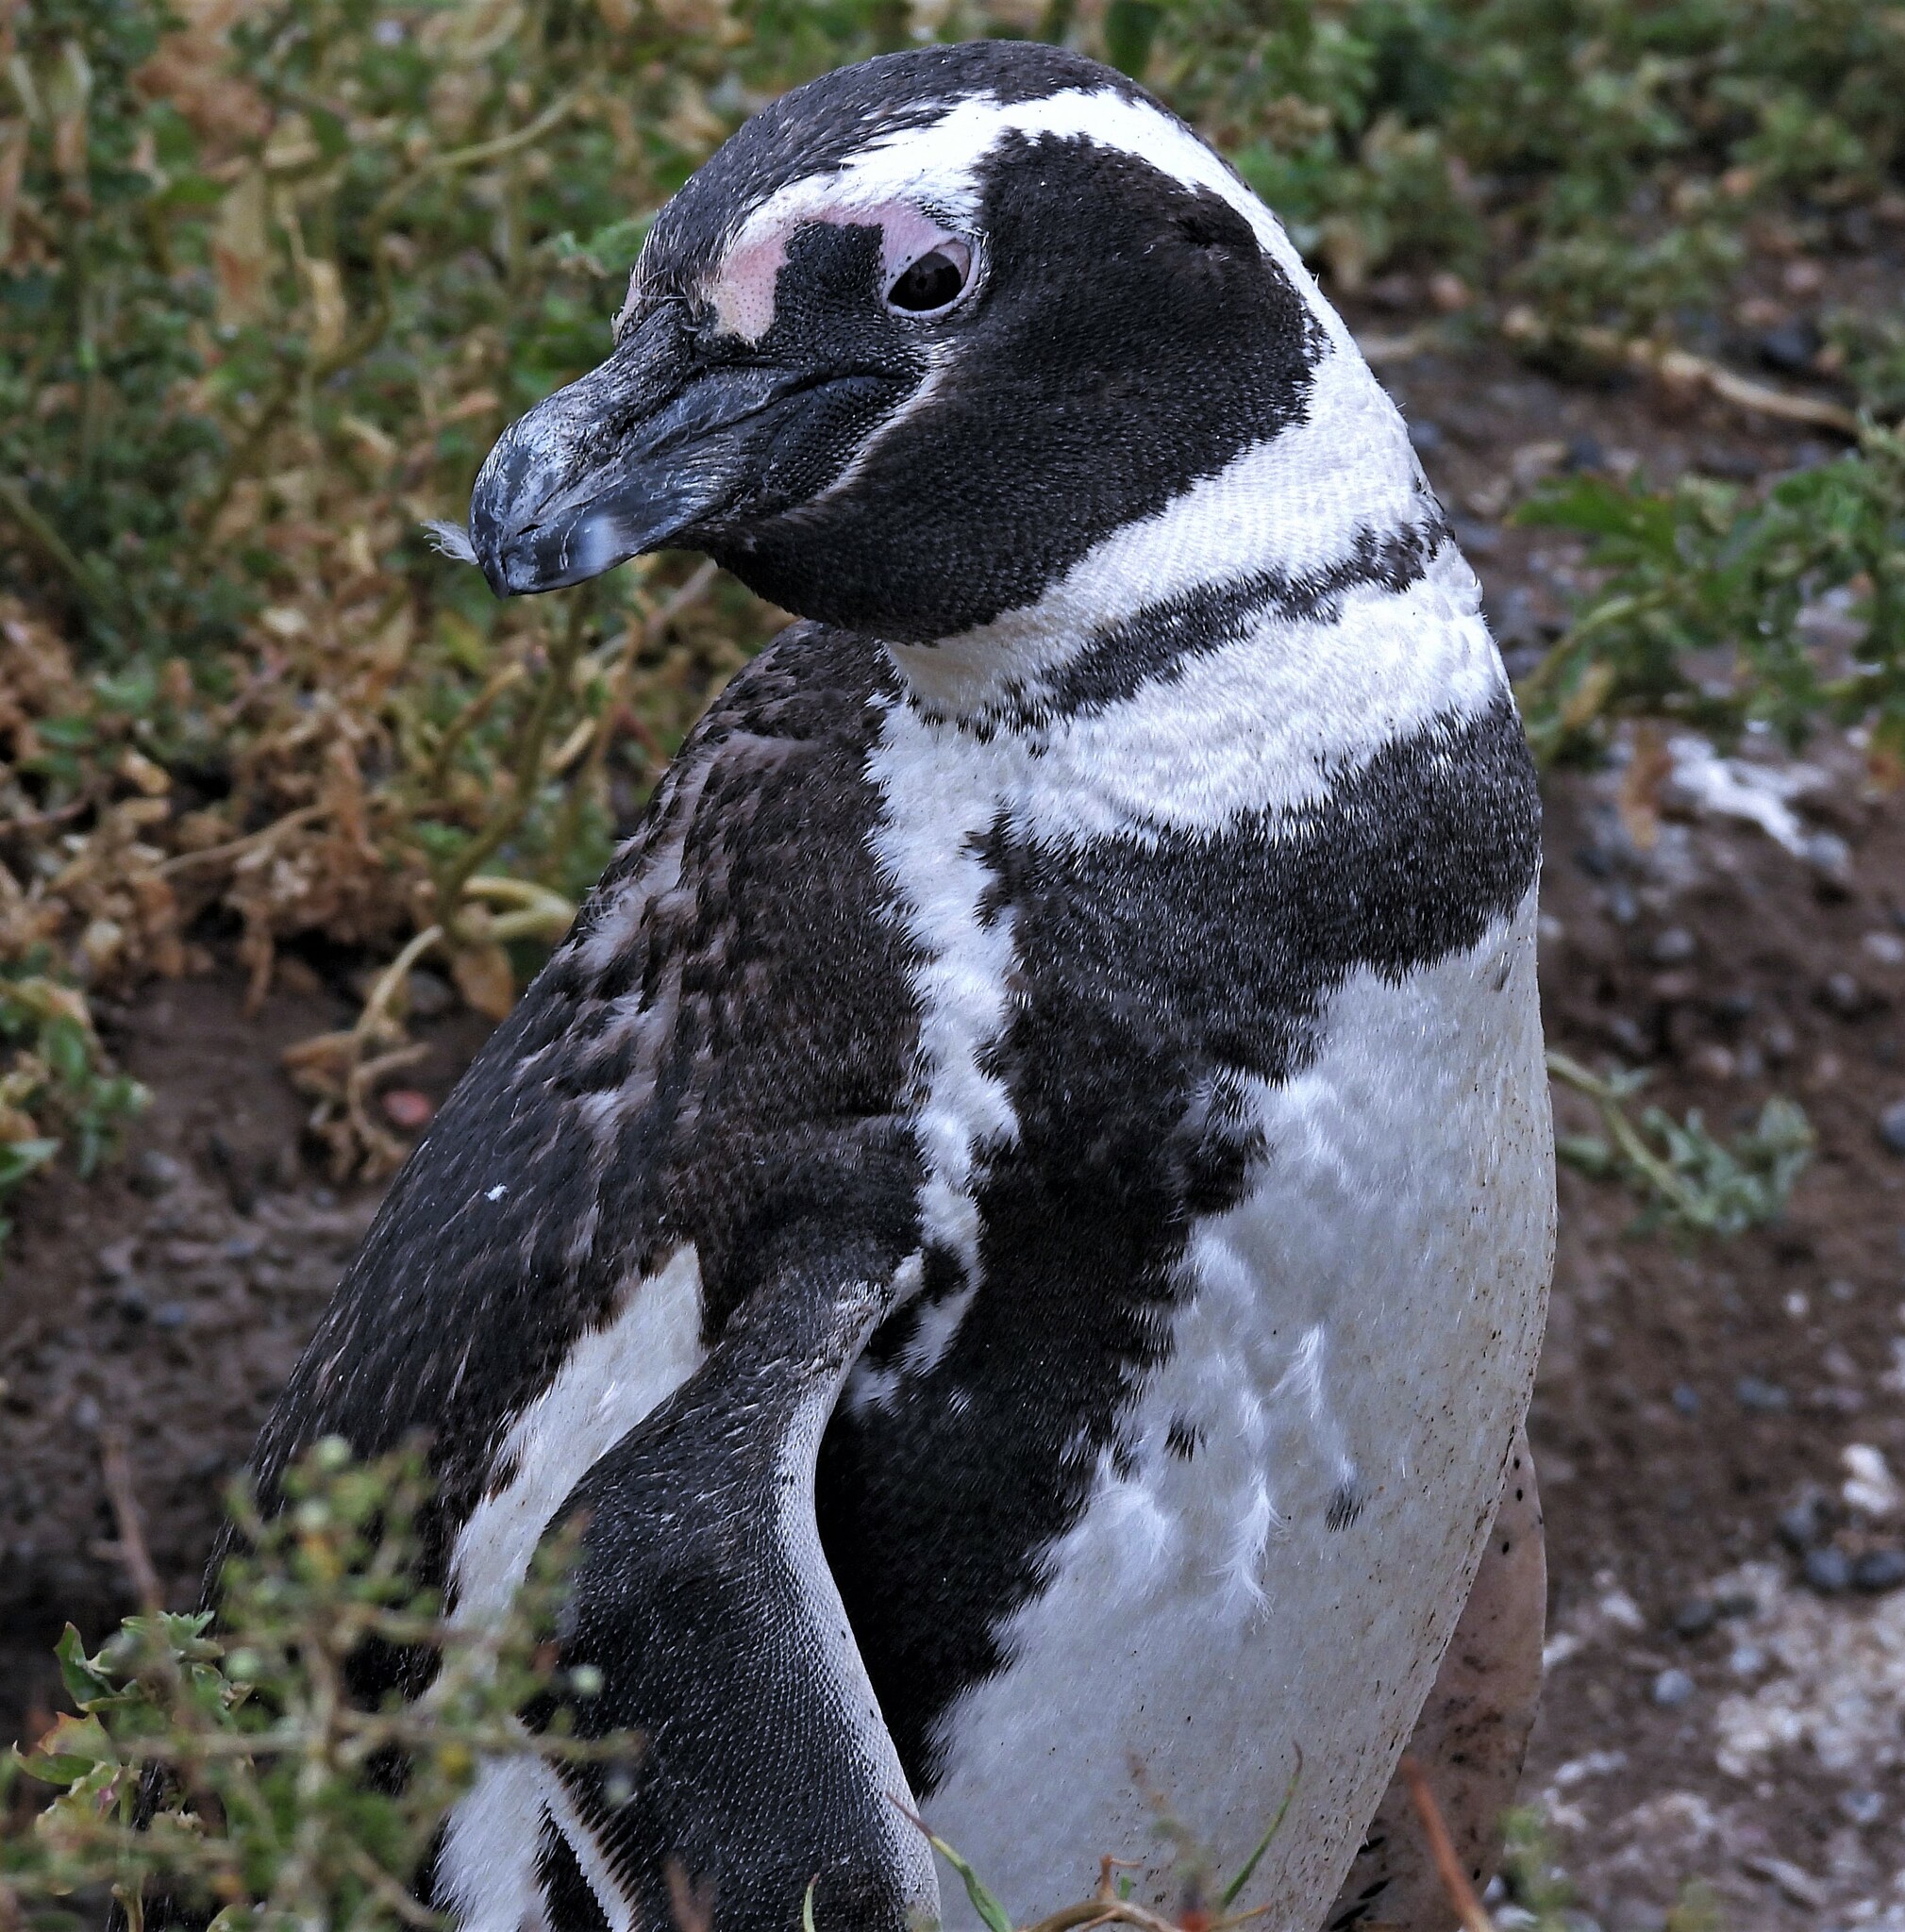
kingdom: Animalia
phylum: Chordata
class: Aves
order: Sphenisciformes
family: Spheniscidae
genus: Spheniscus
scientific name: Spheniscus magellanicus
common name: Magellanic penguin
